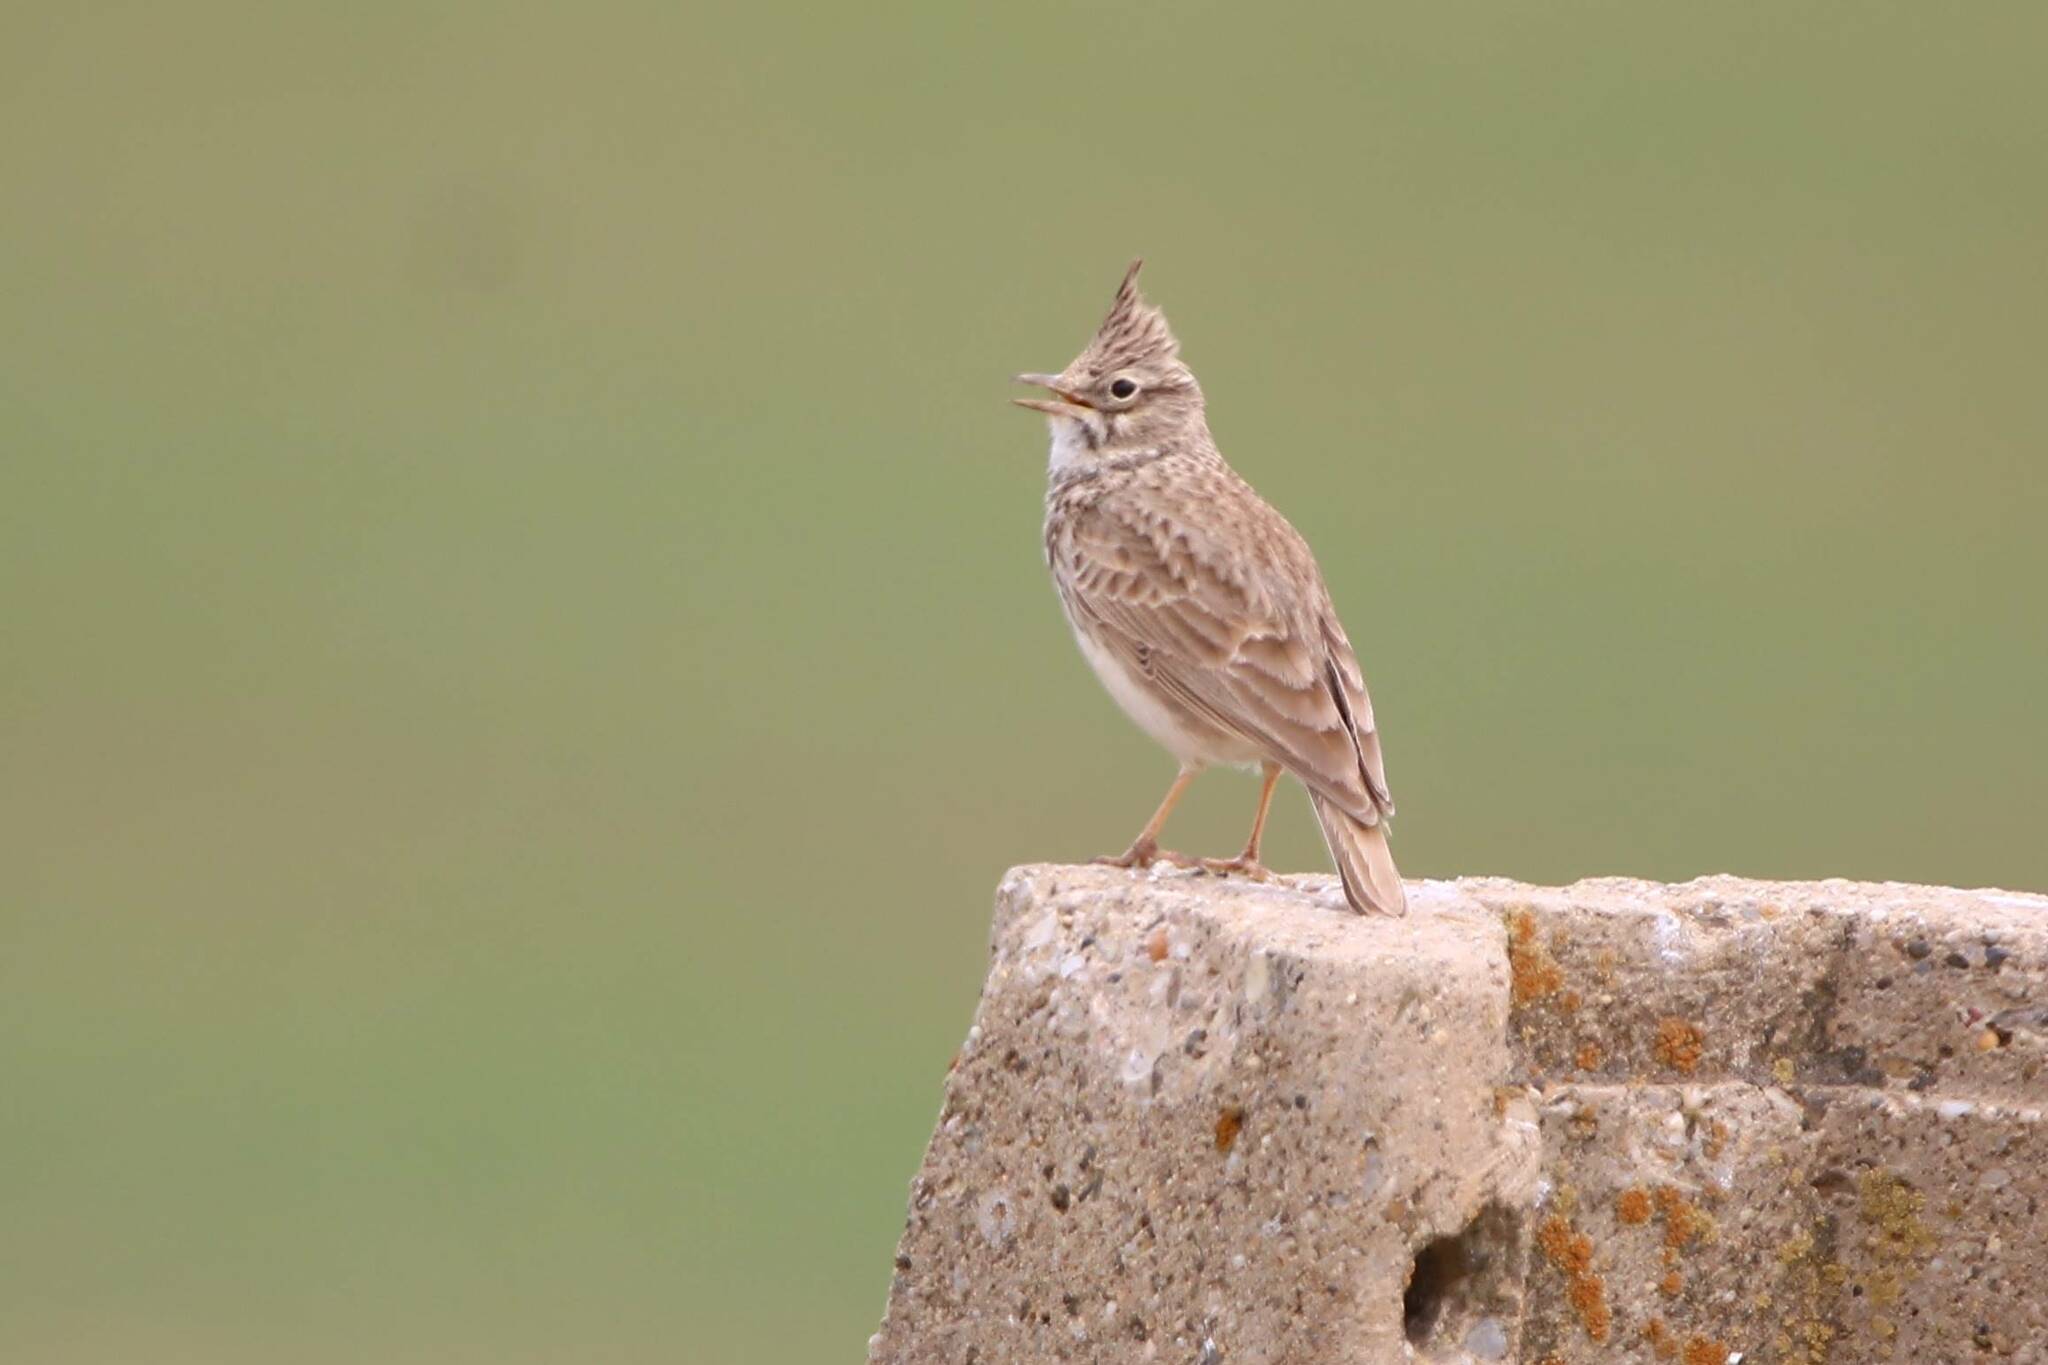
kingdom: Animalia
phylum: Chordata
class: Aves
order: Passeriformes
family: Alaudidae
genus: Galerida
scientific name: Galerida theklae
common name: Thekla lark
